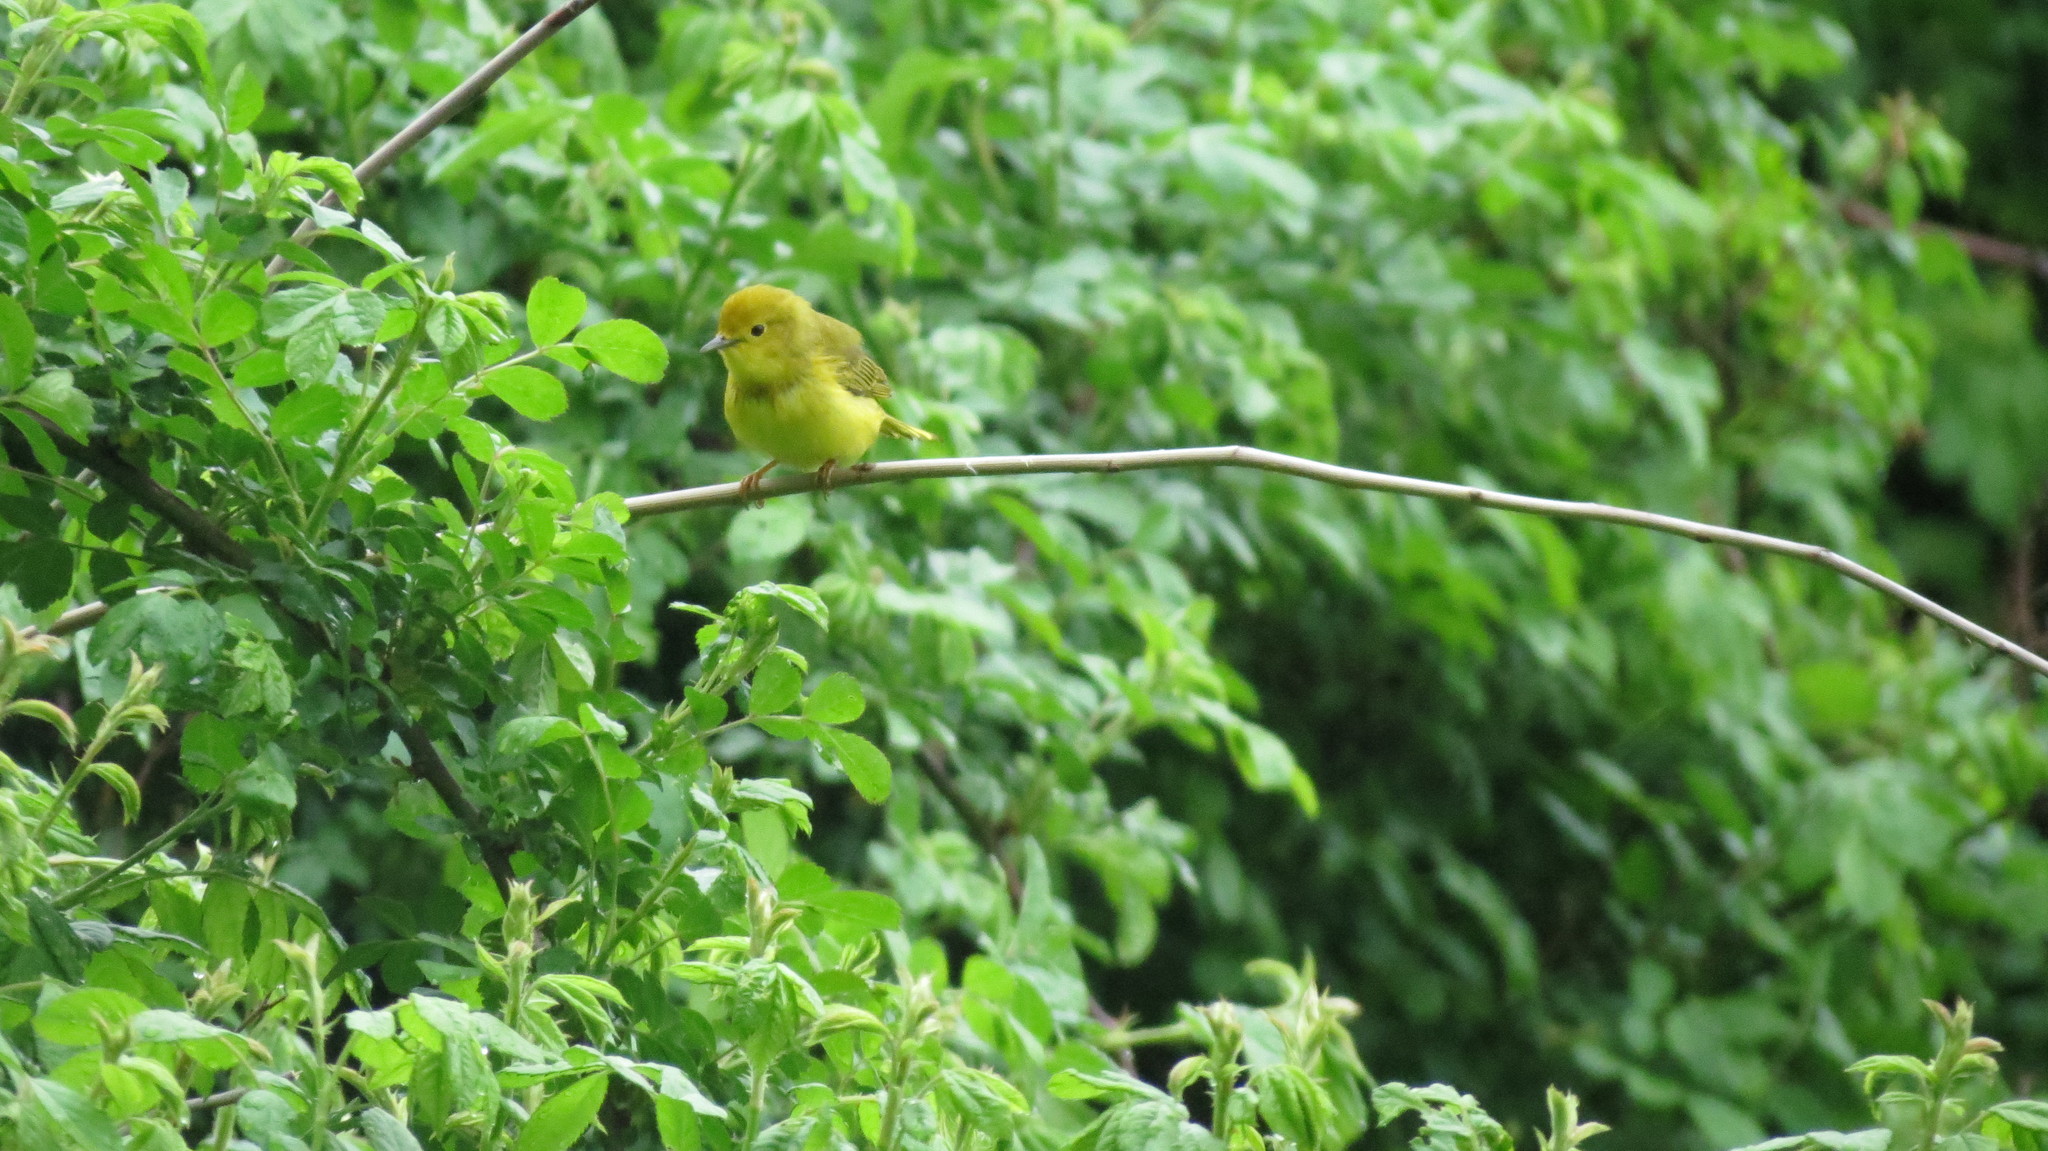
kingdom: Animalia
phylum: Chordata
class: Aves
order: Passeriformes
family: Parulidae
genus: Setophaga
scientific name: Setophaga petechia
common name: Yellow warbler
